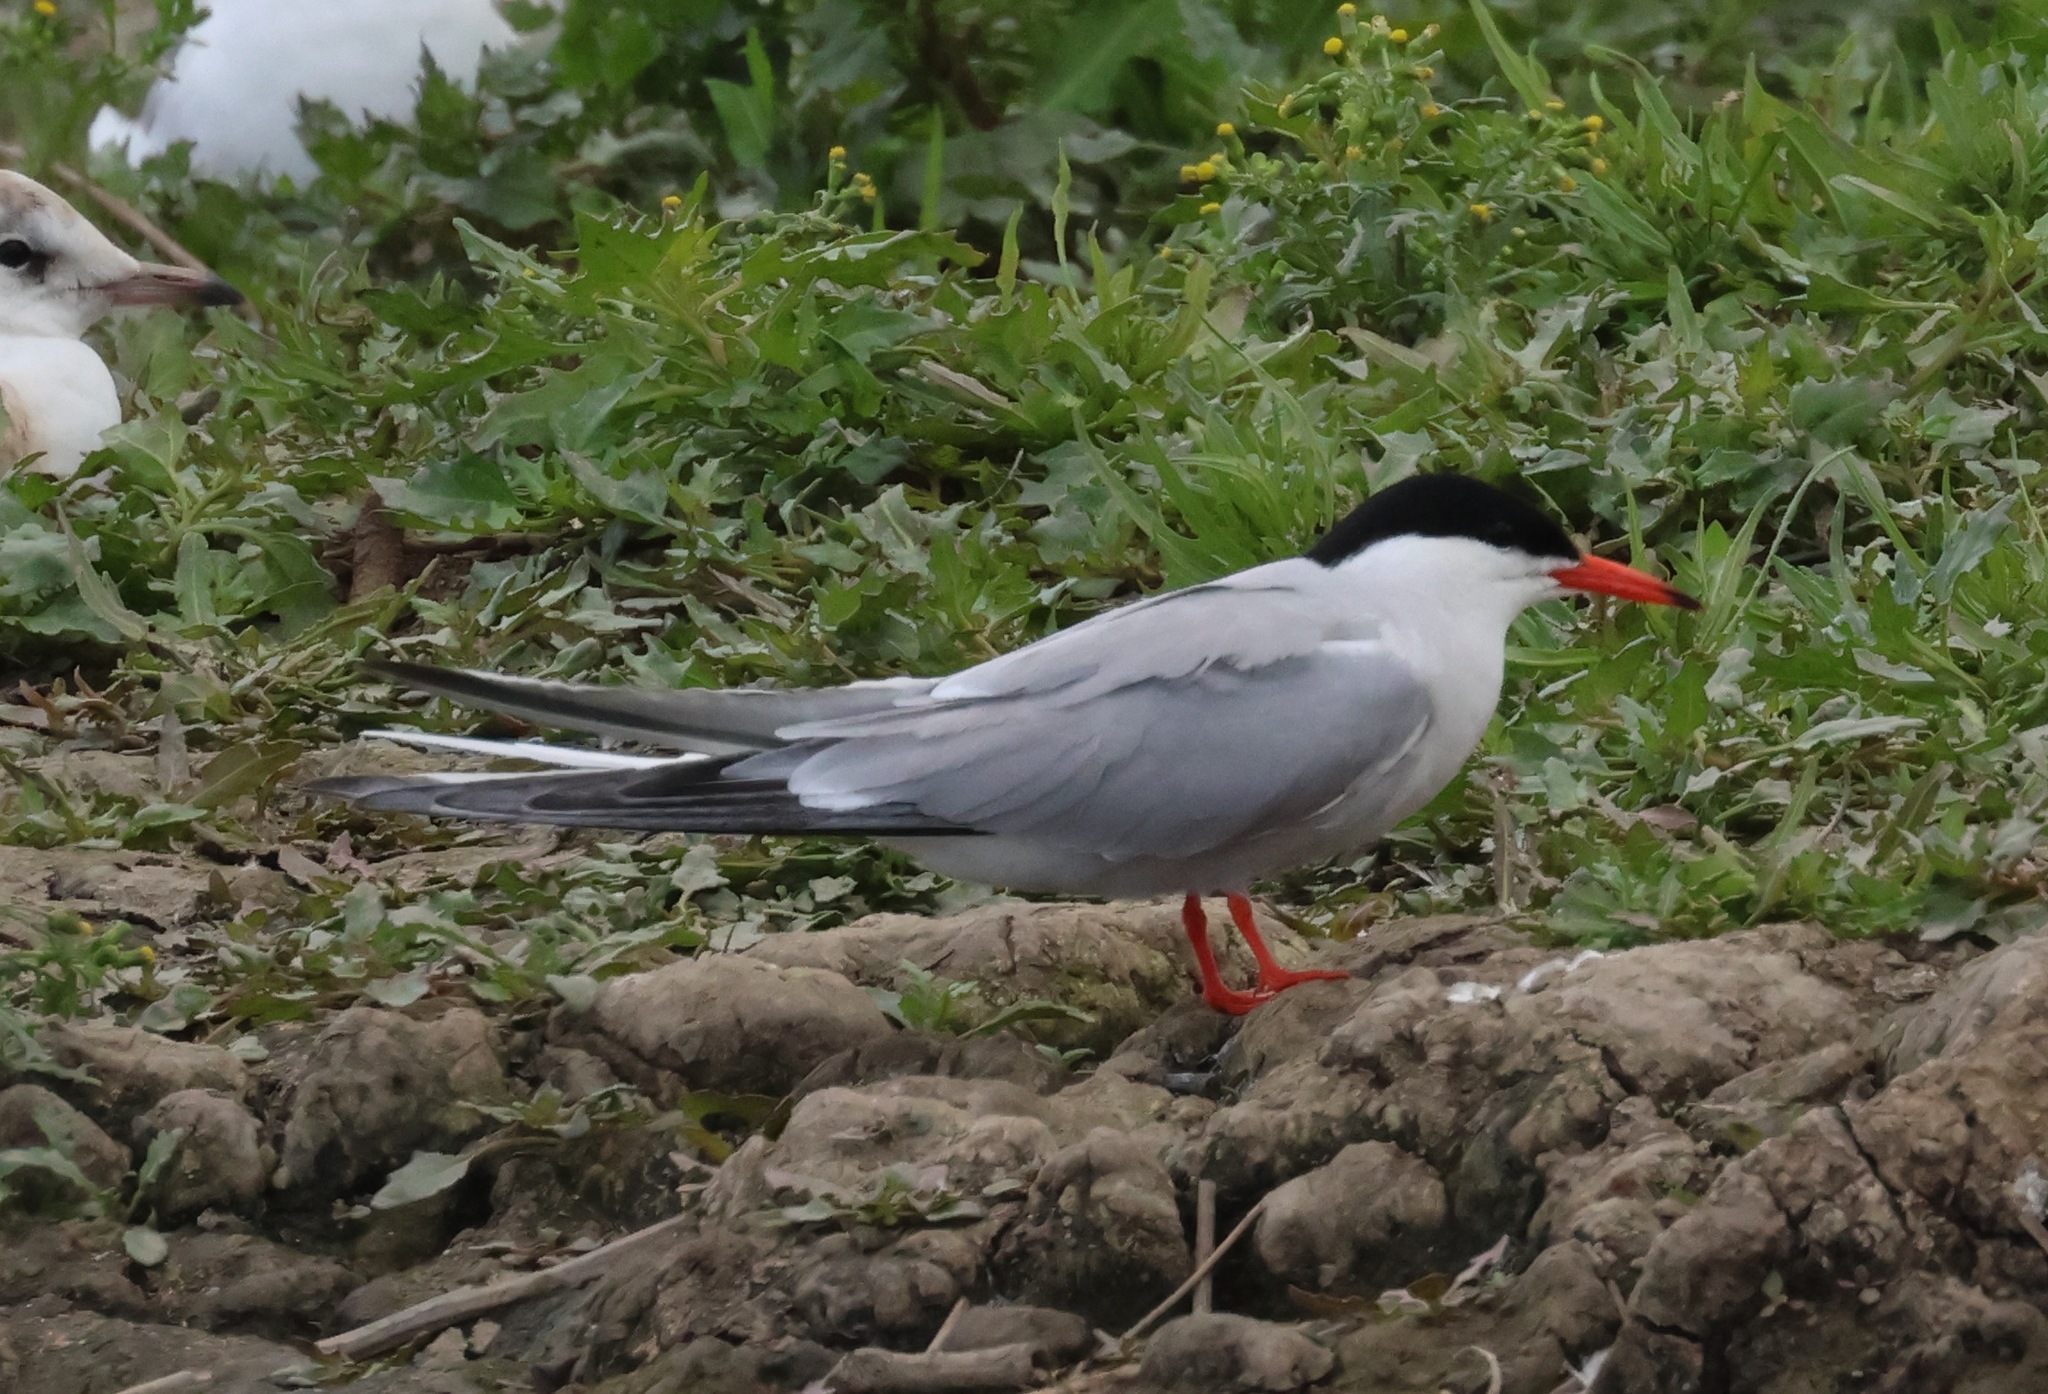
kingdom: Animalia
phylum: Chordata
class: Aves
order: Charadriiformes
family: Laridae
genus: Sterna
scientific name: Sterna hirundo
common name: Common tern
